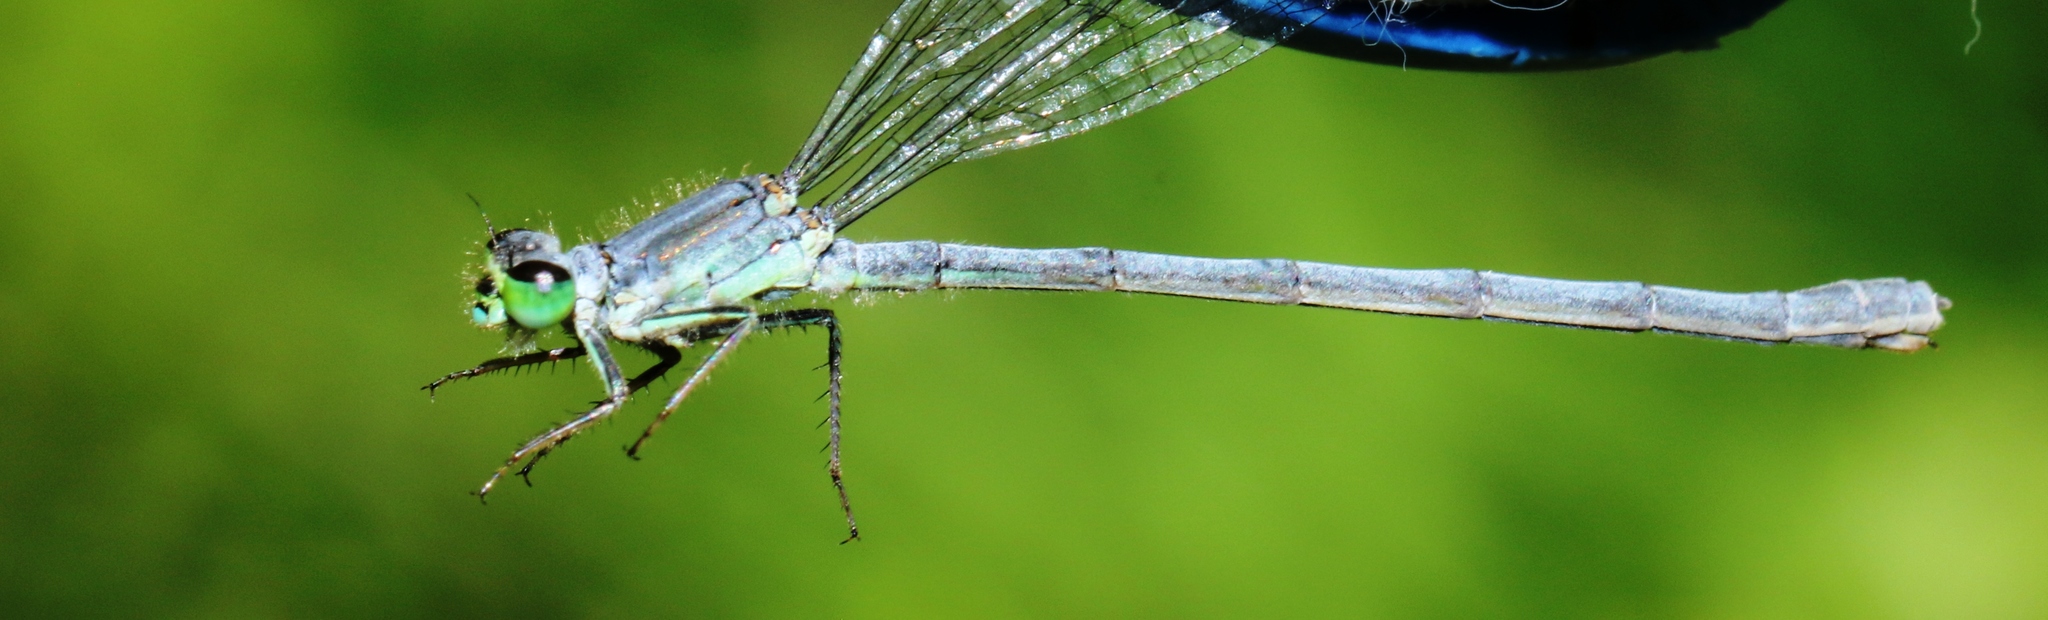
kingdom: Animalia
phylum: Arthropoda
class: Insecta
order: Odonata
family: Coenagrionidae
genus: Ischnura
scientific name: Ischnura verticalis
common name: Eastern forktail
